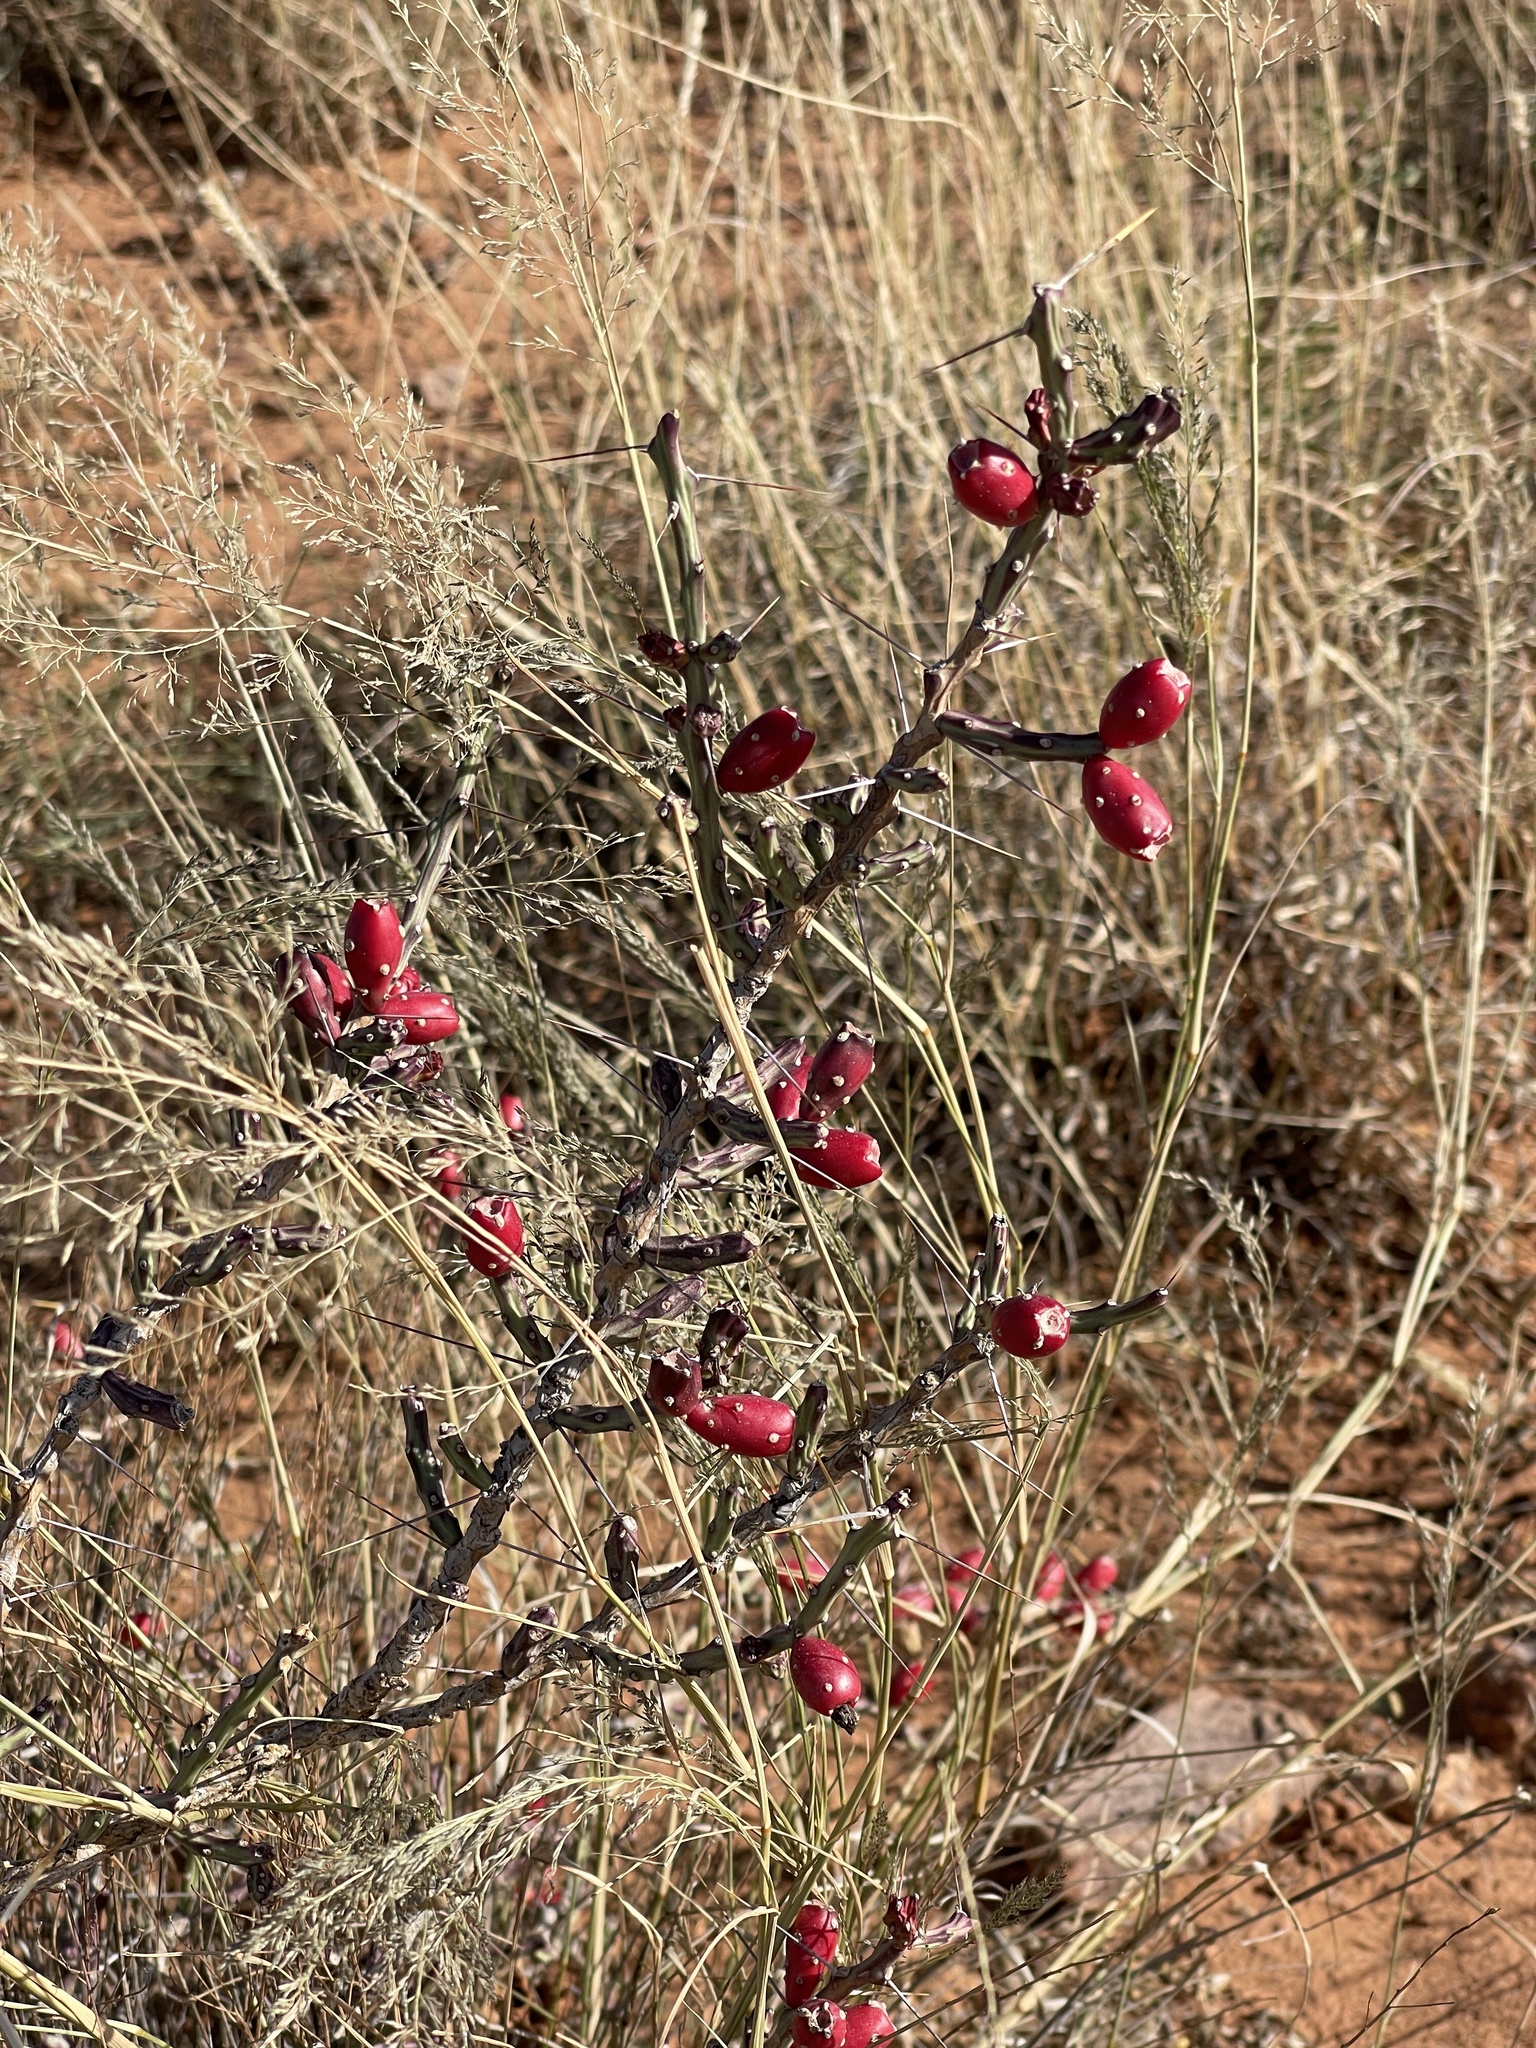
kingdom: Plantae
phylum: Tracheophyta
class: Magnoliopsida
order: Caryophyllales
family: Cactaceae
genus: Cylindropuntia
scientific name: Cylindropuntia leptocaulis
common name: Christmas cactus
